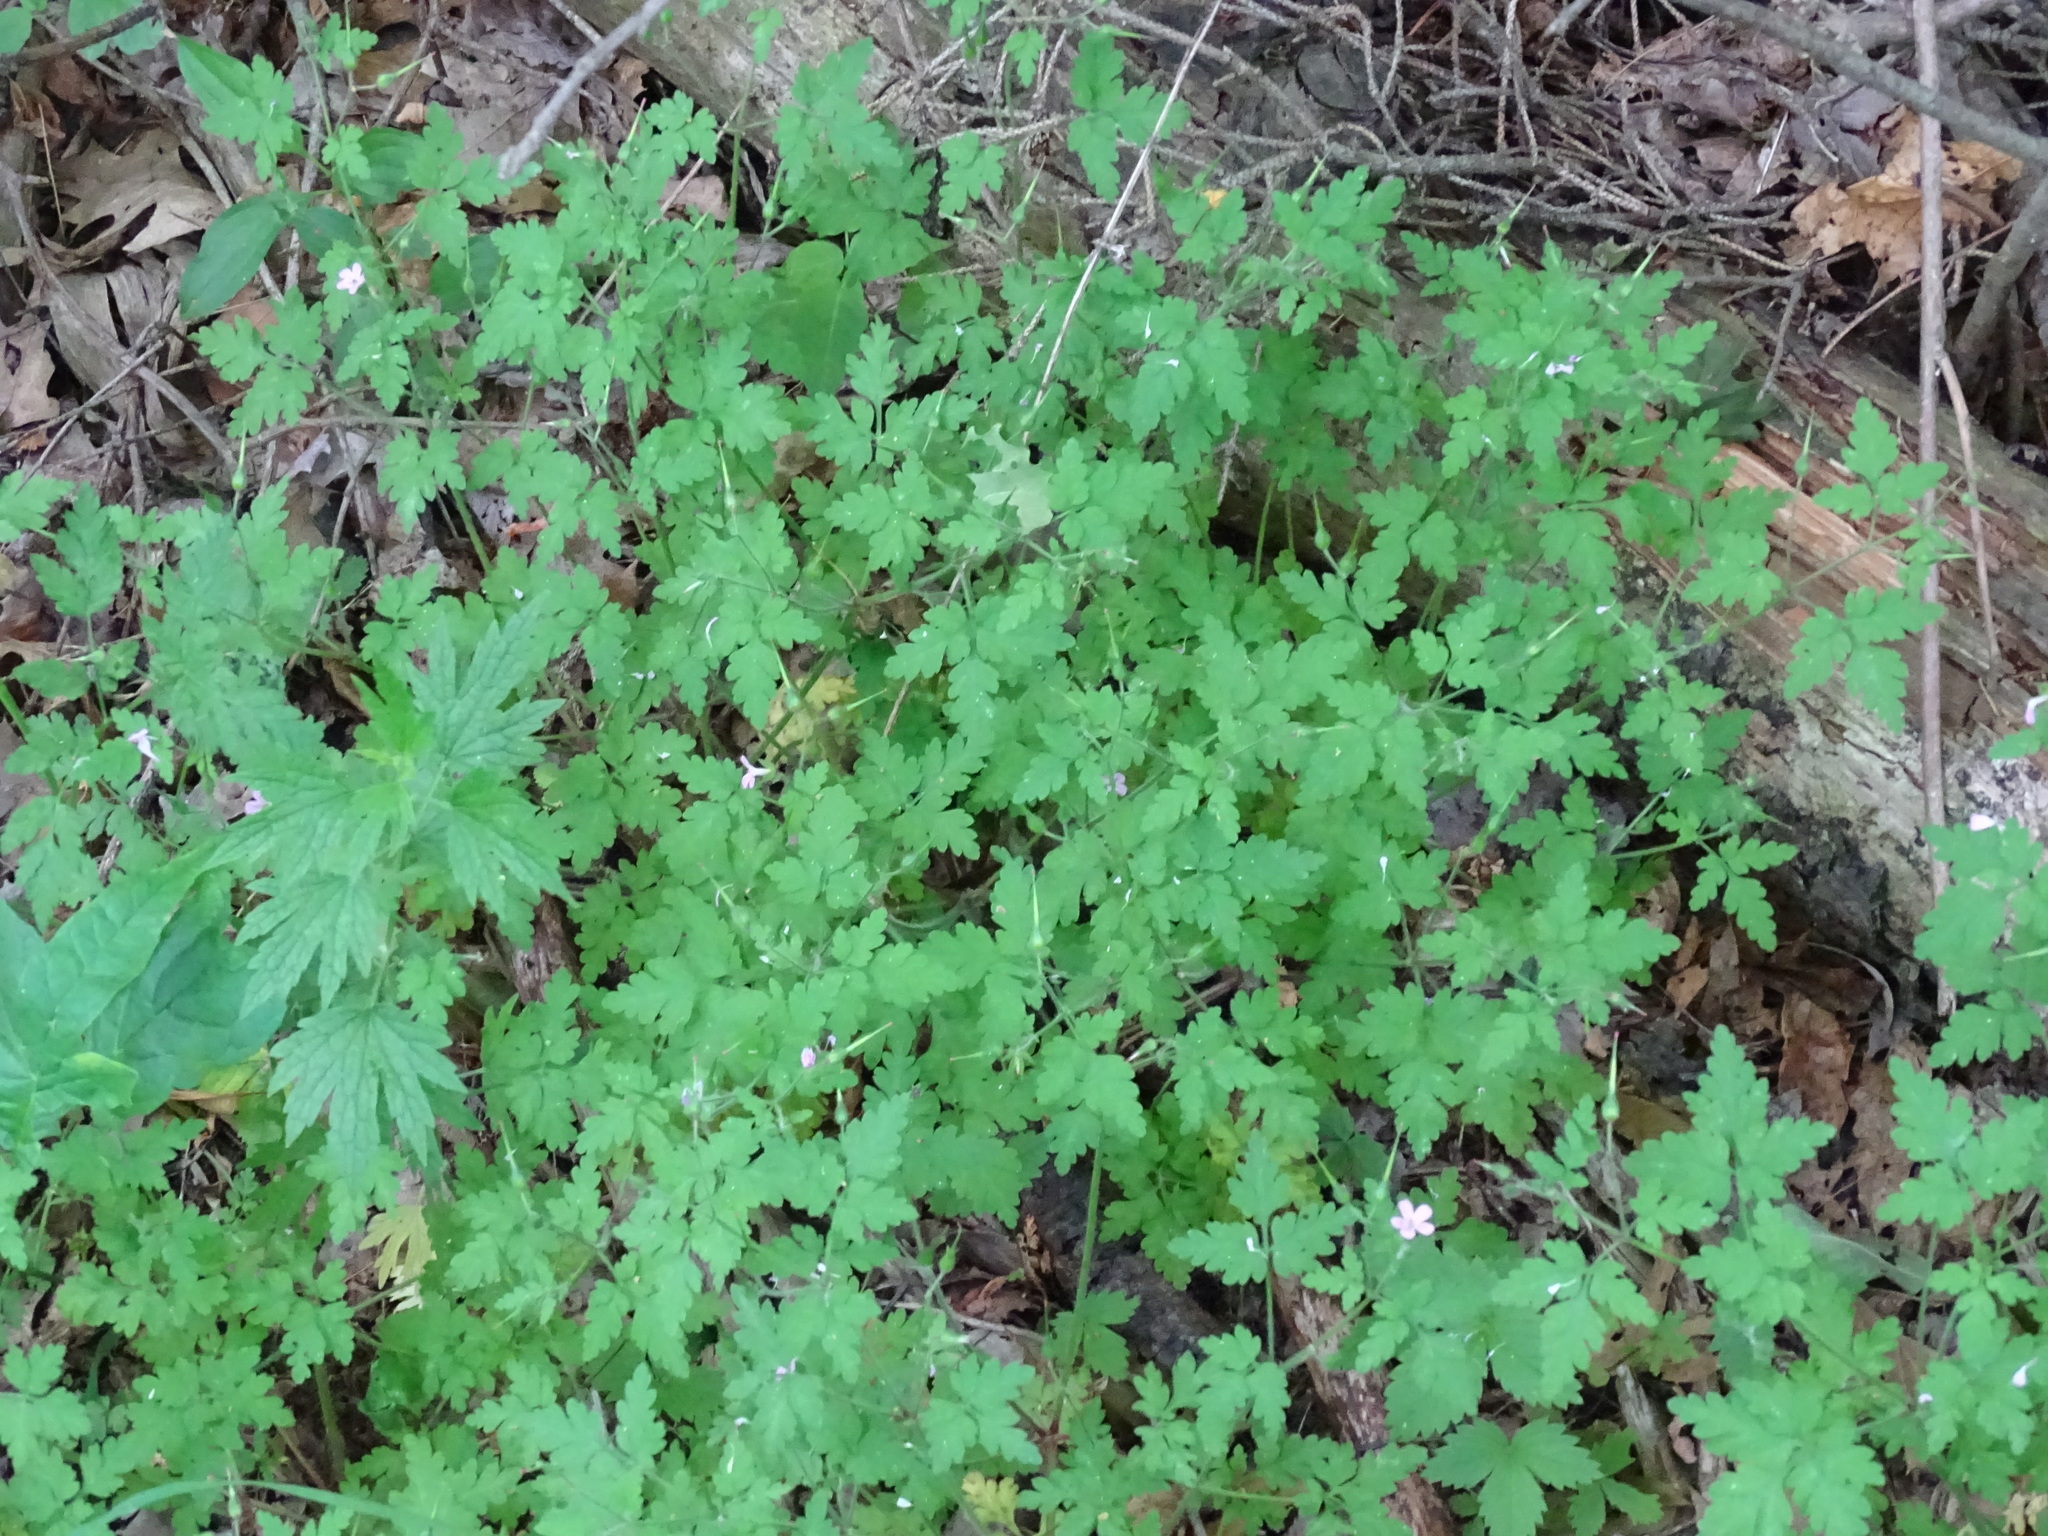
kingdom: Plantae
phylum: Tracheophyta
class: Magnoliopsida
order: Geraniales
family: Geraniaceae
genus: Geranium
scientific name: Geranium robertianum
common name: Herb-robert
